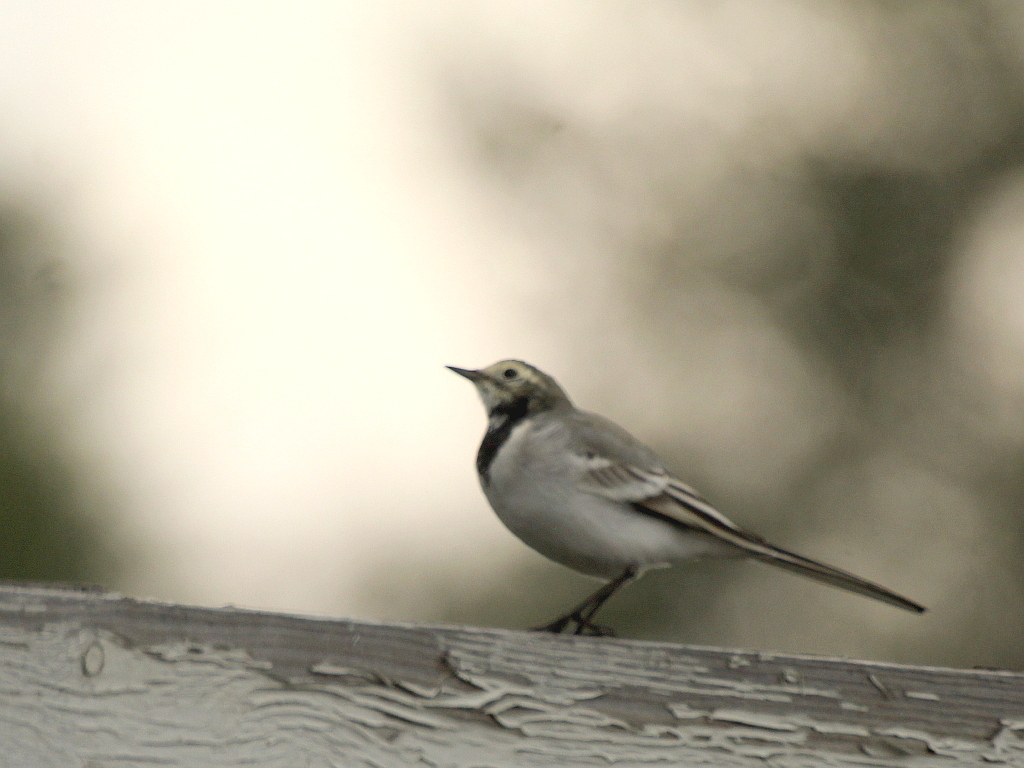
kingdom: Animalia
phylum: Chordata
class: Aves
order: Passeriformes
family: Motacillidae
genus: Motacilla
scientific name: Motacilla alba
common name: White wagtail
